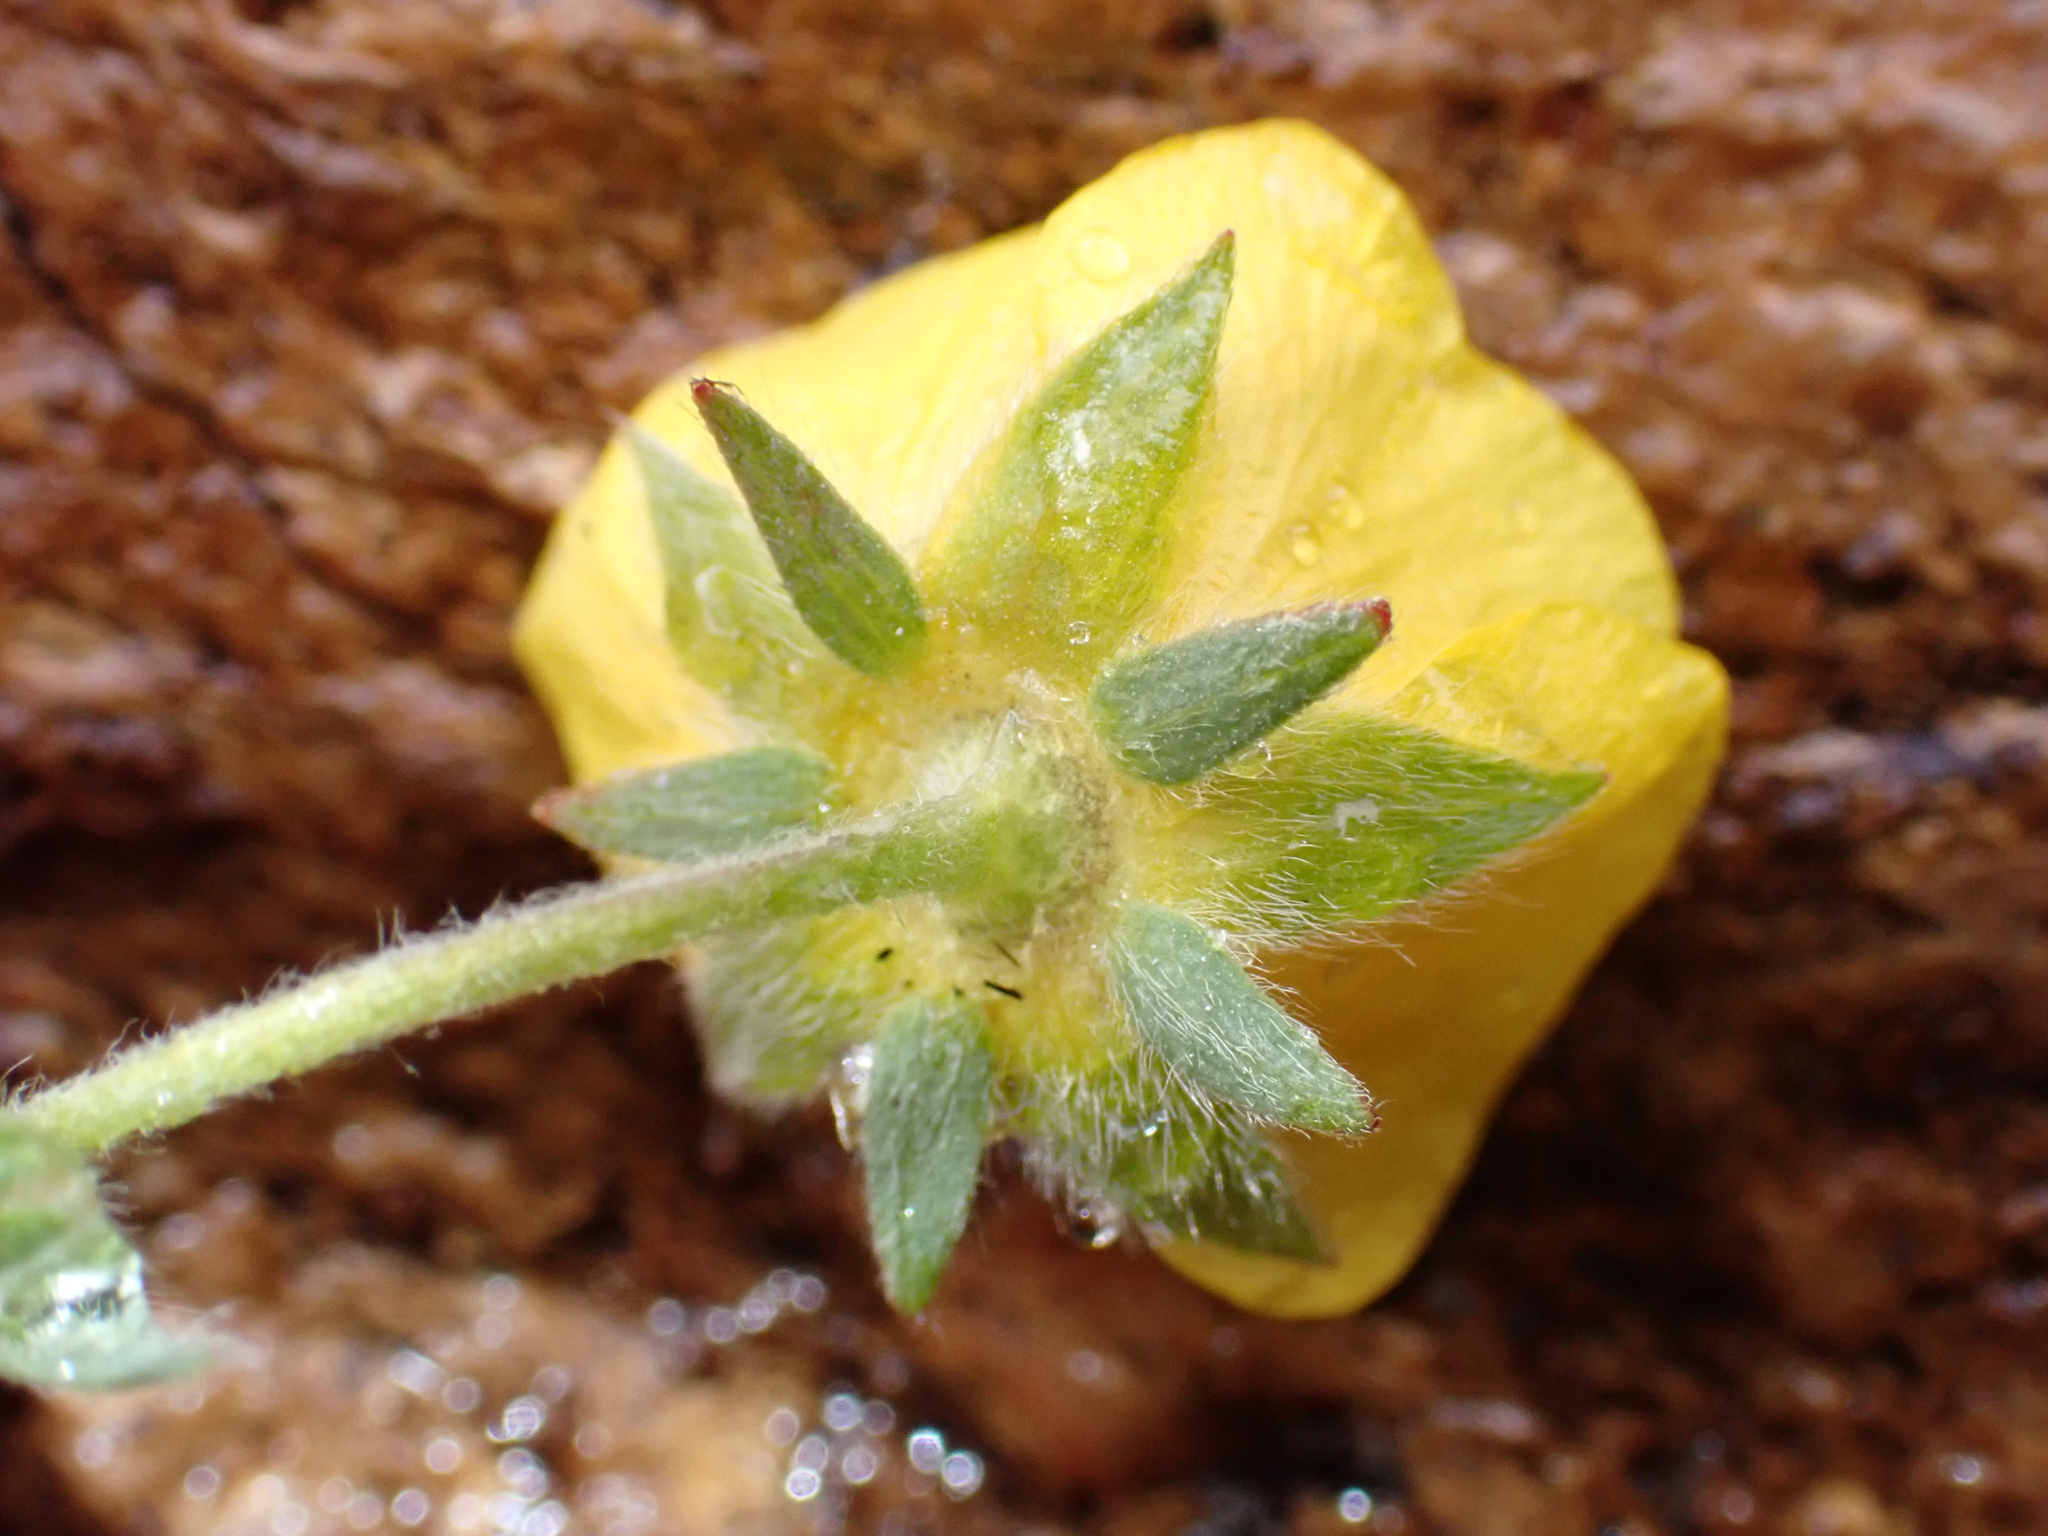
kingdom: Plantae
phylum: Tracheophyta
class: Magnoliopsida
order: Rosales
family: Rosaceae
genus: Potentilla
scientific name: Potentilla glaucophylla
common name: Blue-leaved cinquefoil
